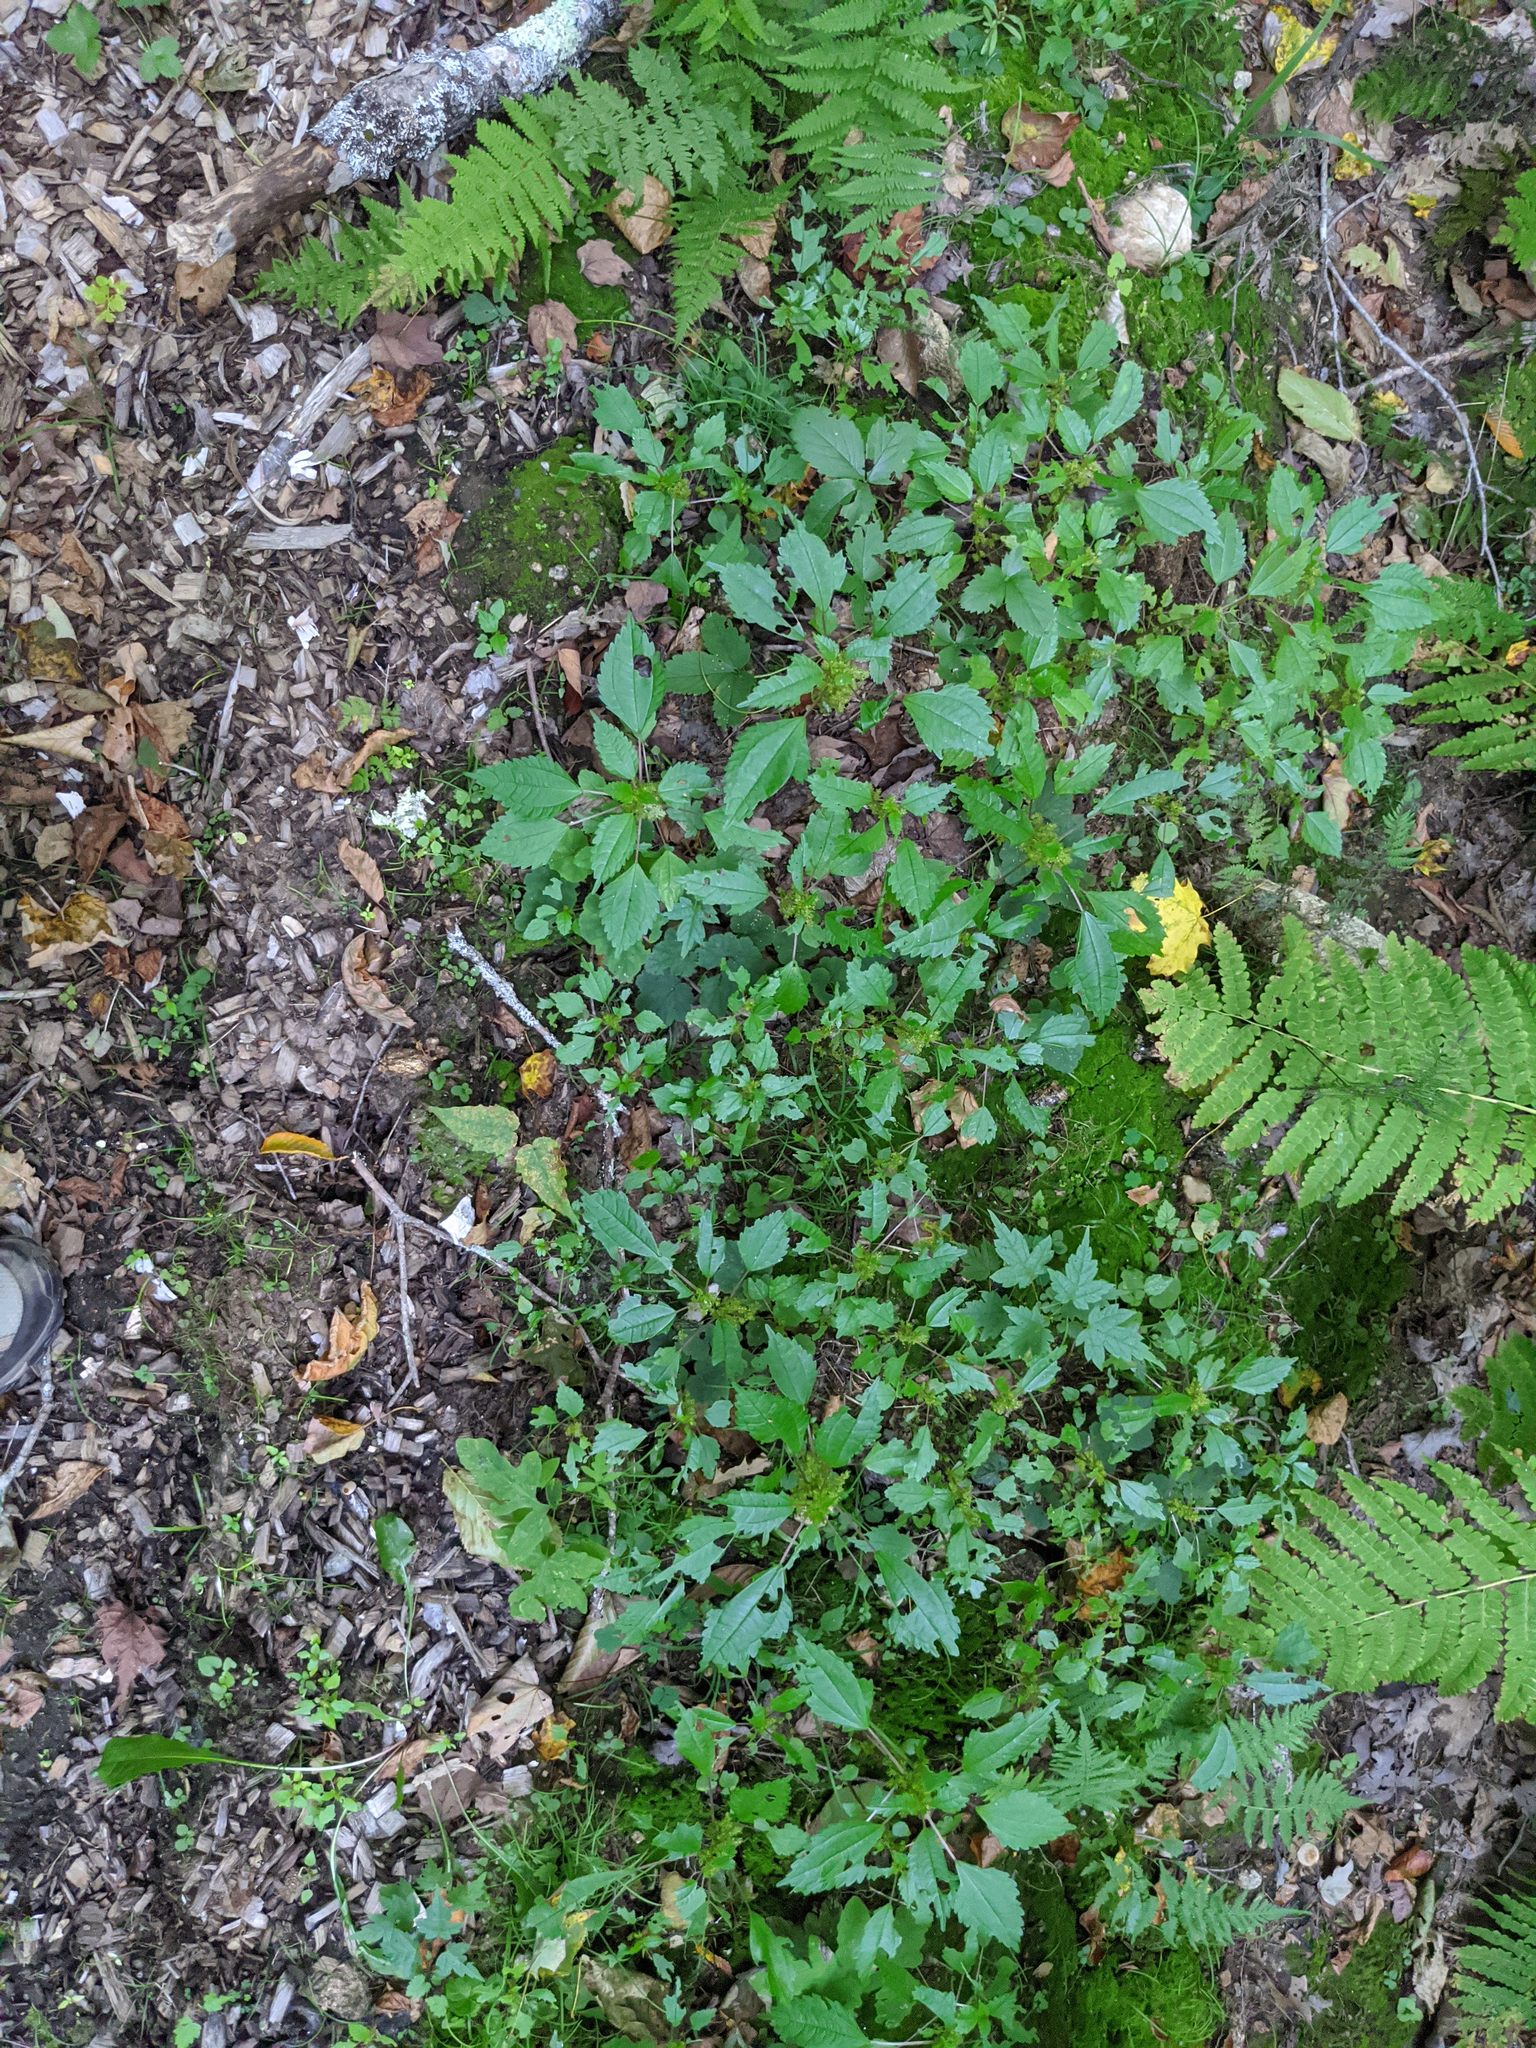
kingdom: Plantae
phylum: Tracheophyta
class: Magnoliopsida
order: Rosales
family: Urticaceae
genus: Pilea
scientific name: Pilea pumila
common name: Clearweed
